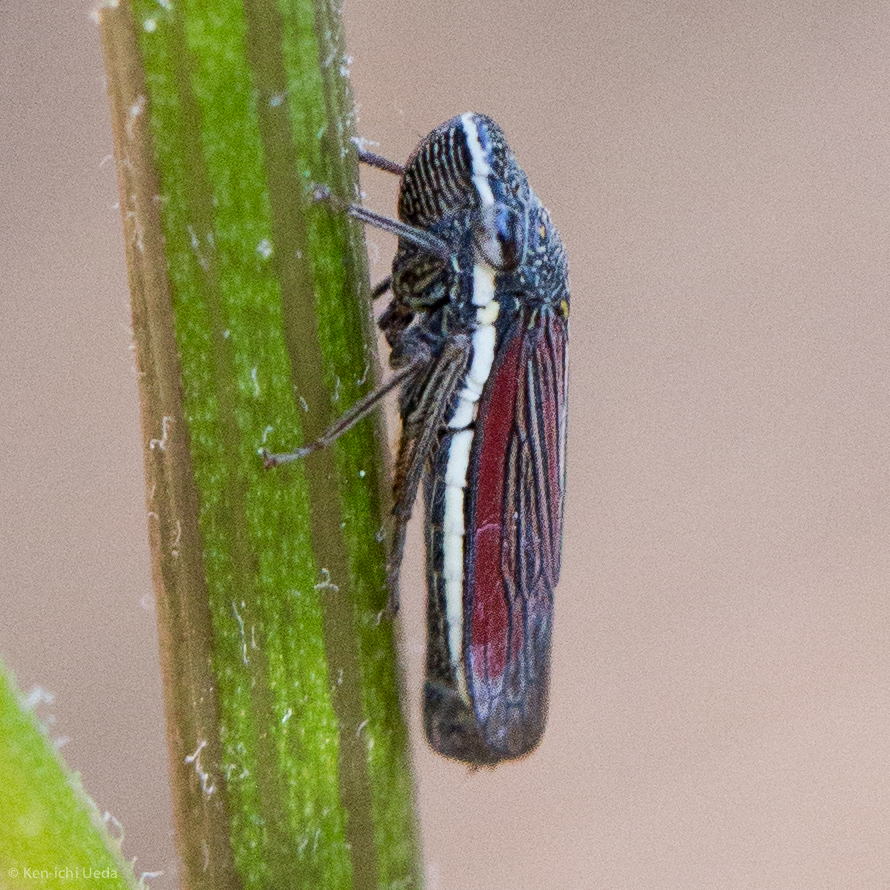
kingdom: Animalia
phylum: Arthropoda
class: Insecta
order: Hemiptera
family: Cicadellidae
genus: Cuerna
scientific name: Cuerna arida
